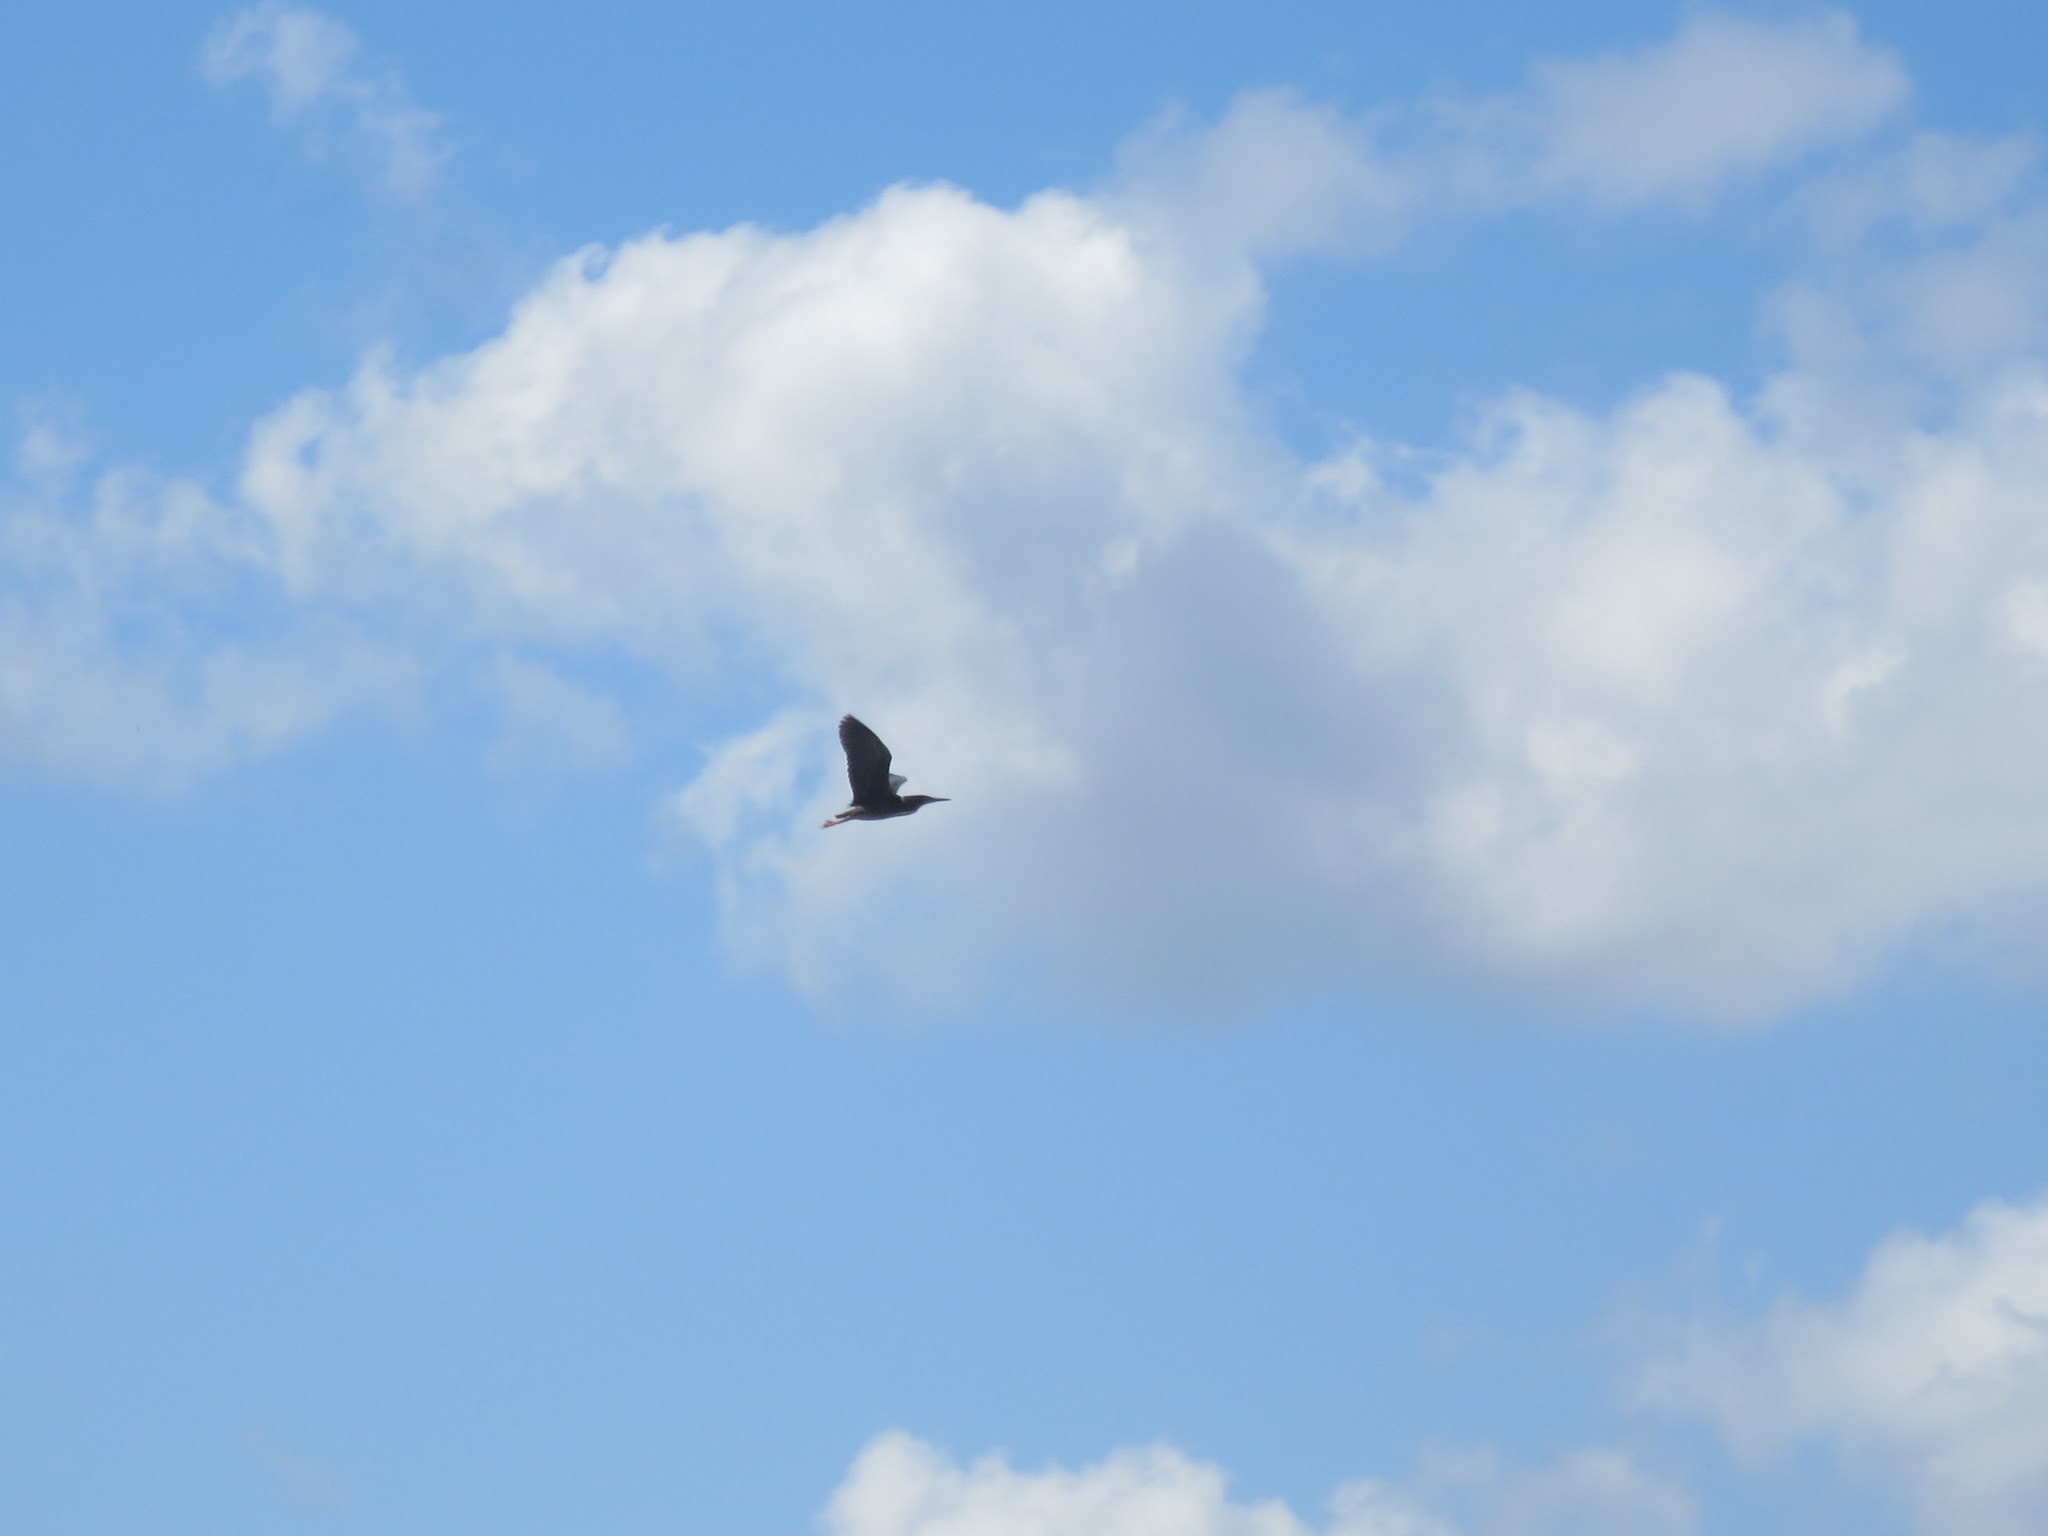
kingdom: Animalia
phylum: Chordata
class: Aves
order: Pelecaniformes
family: Ardeidae
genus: Butorides
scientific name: Butorides virescens
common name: Green heron
